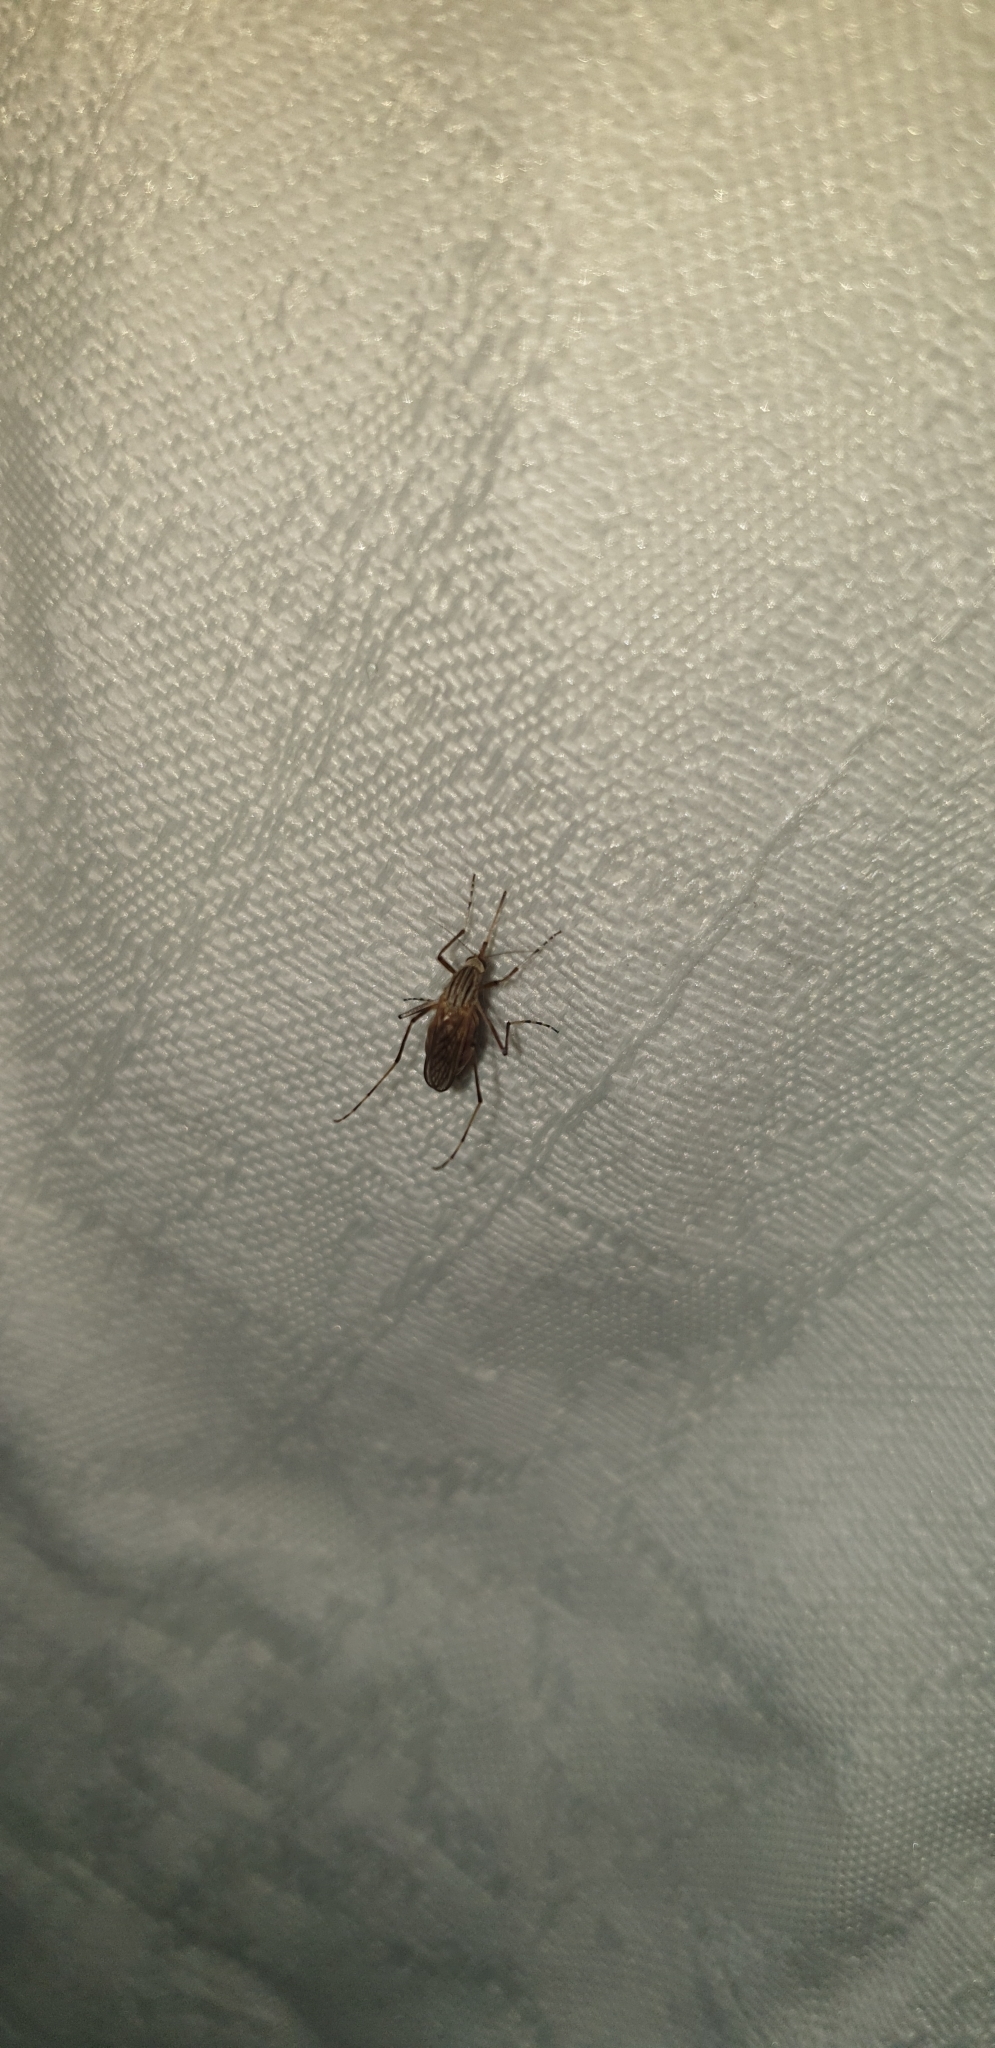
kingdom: Animalia
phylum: Arthropoda
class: Insecta
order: Diptera
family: Culicidae
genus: Aedes
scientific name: Aedes vittiger
